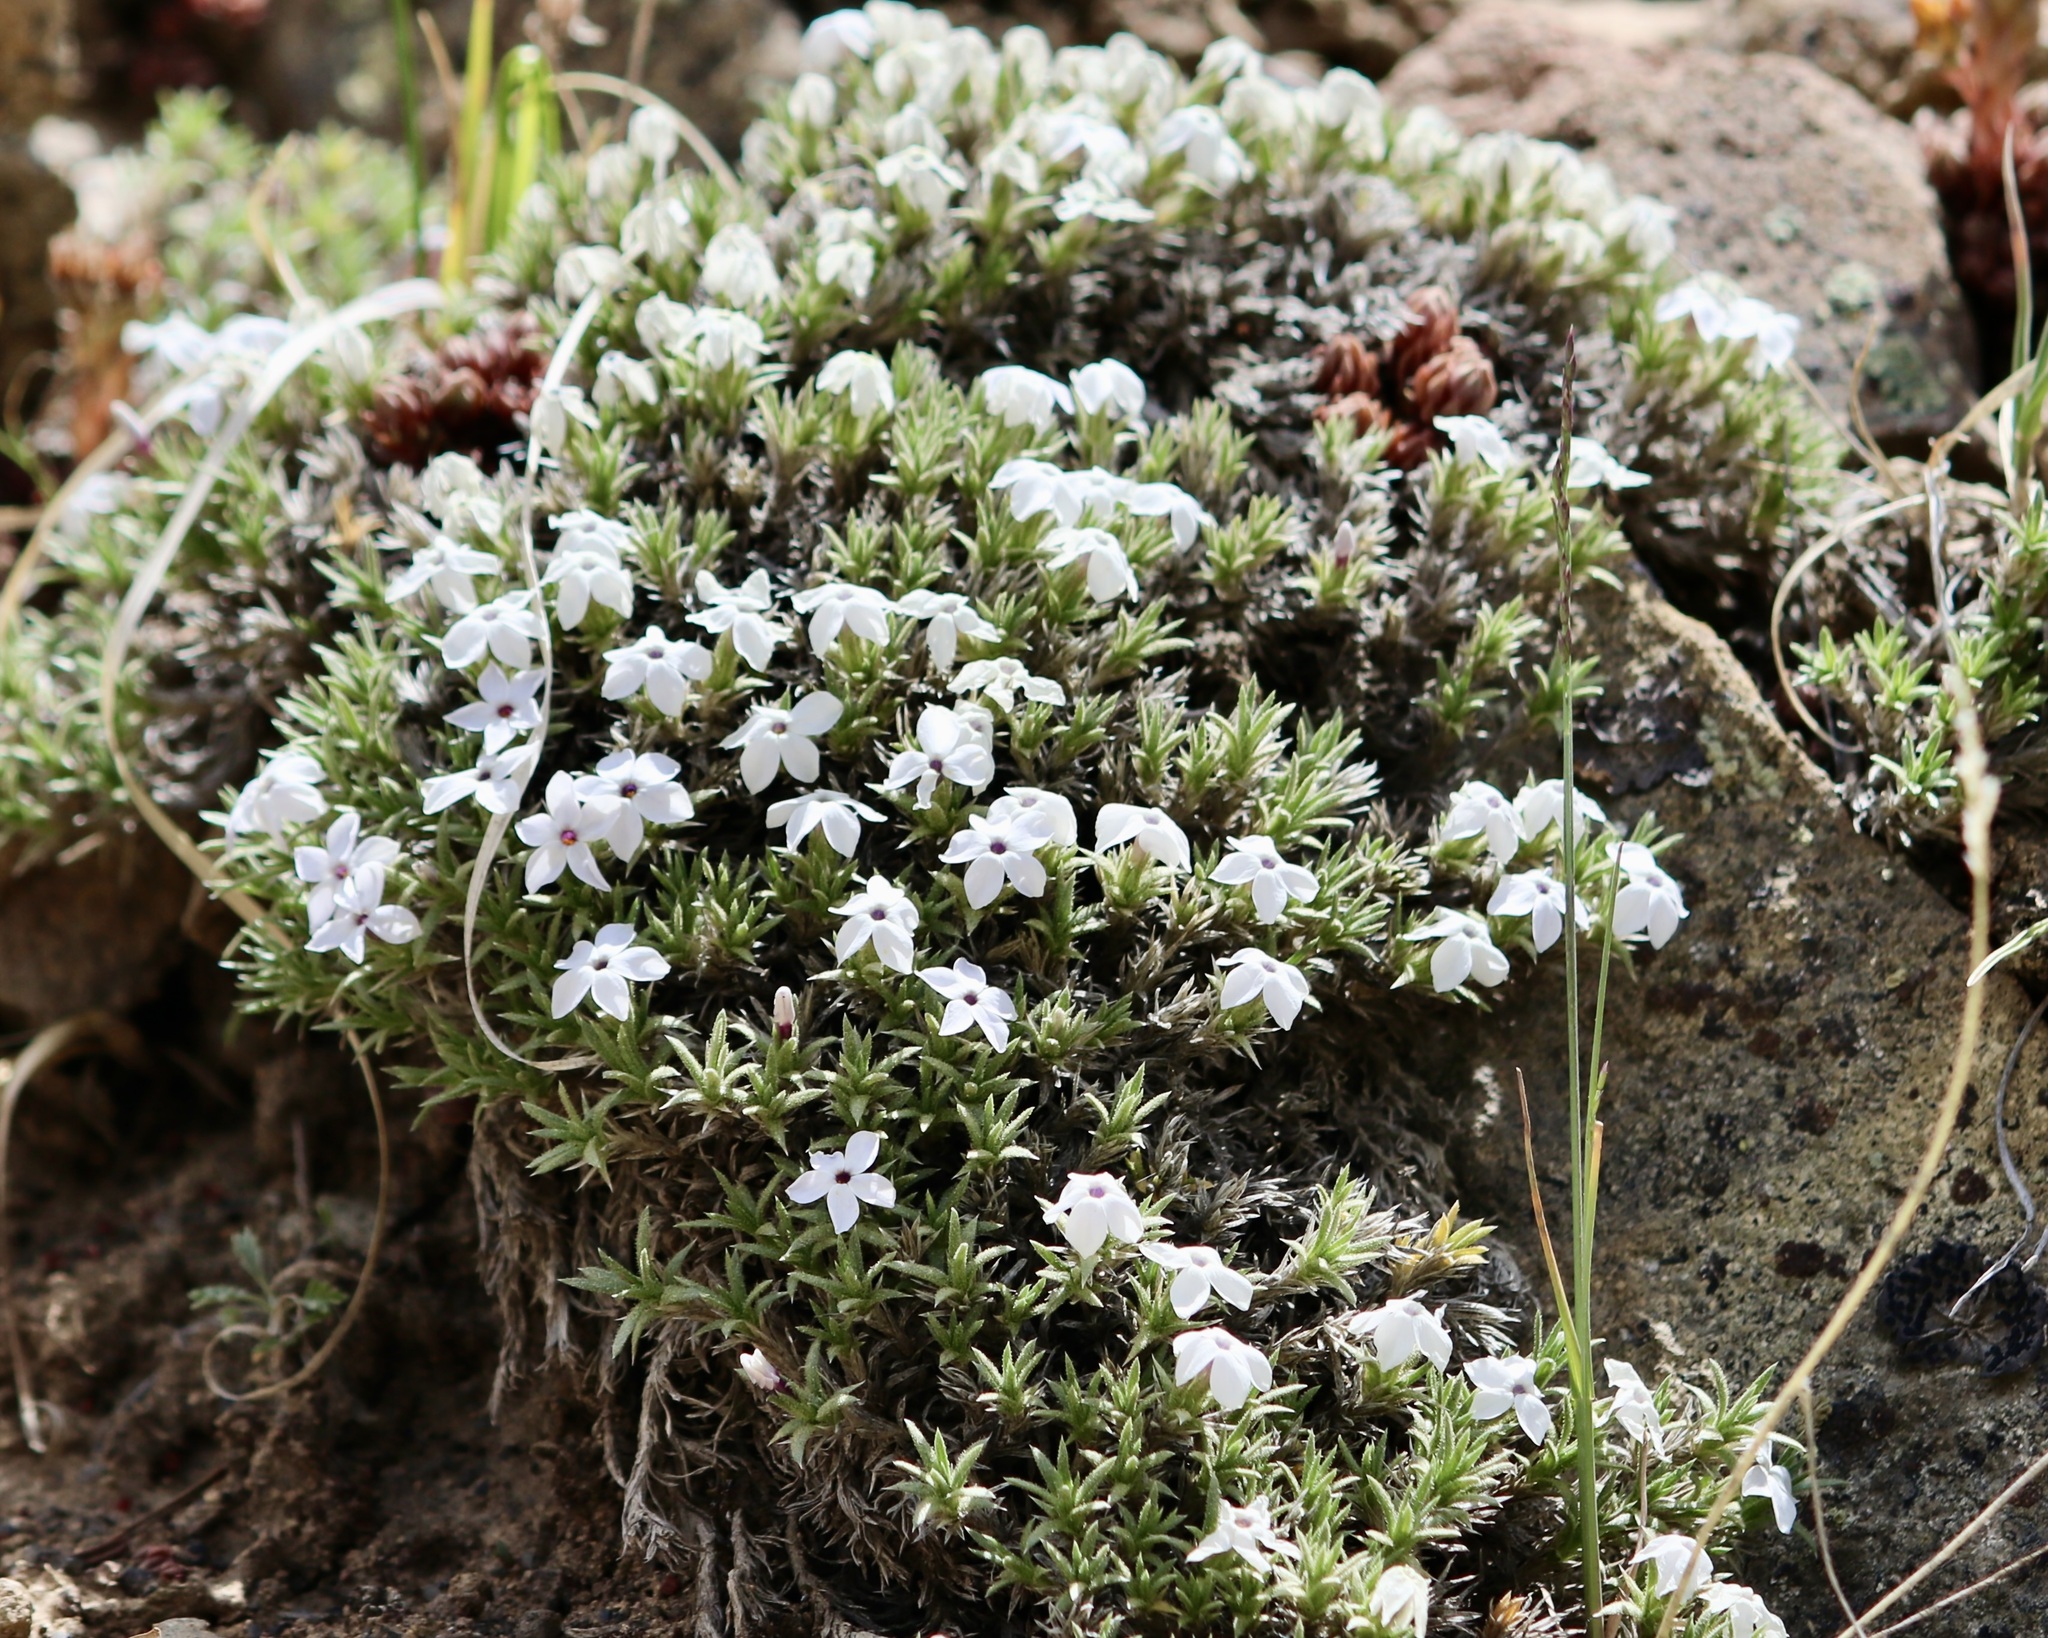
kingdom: Plantae
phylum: Tracheophyta
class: Magnoliopsida
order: Ericales
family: Polemoniaceae
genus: Phlox
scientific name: Phlox condensata
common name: Compact phlox
